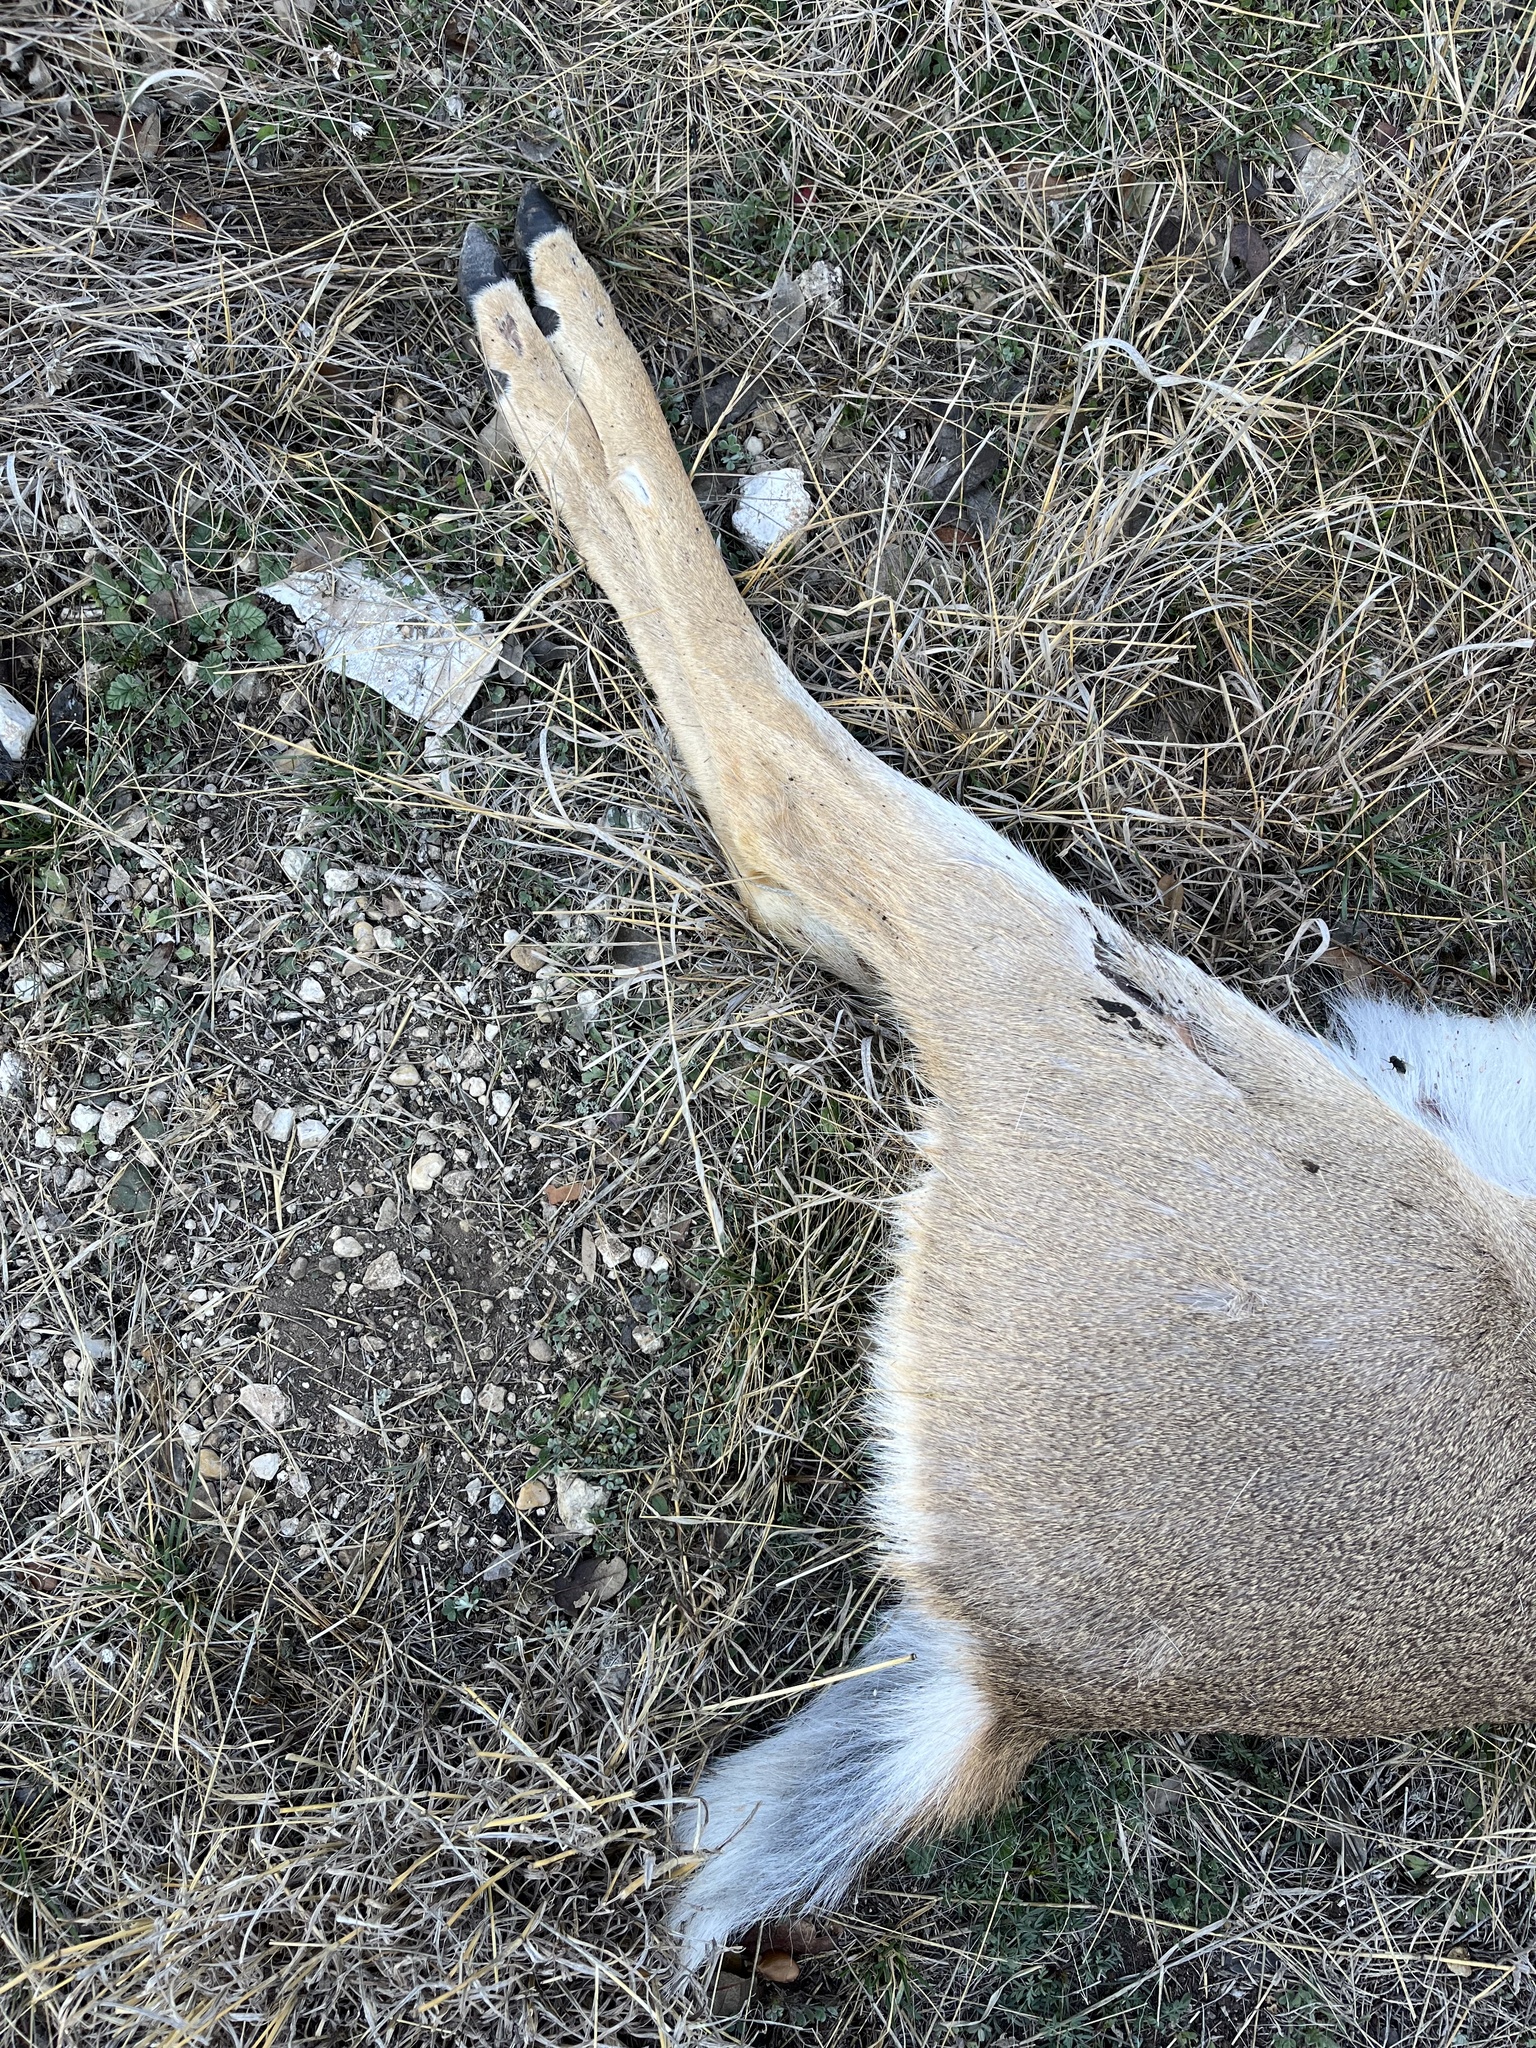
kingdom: Animalia
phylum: Chordata
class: Mammalia
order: Artiodactyla
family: Cervidae
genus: Odocoileus
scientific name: Odocoileus virginianus
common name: White-tailed deer
